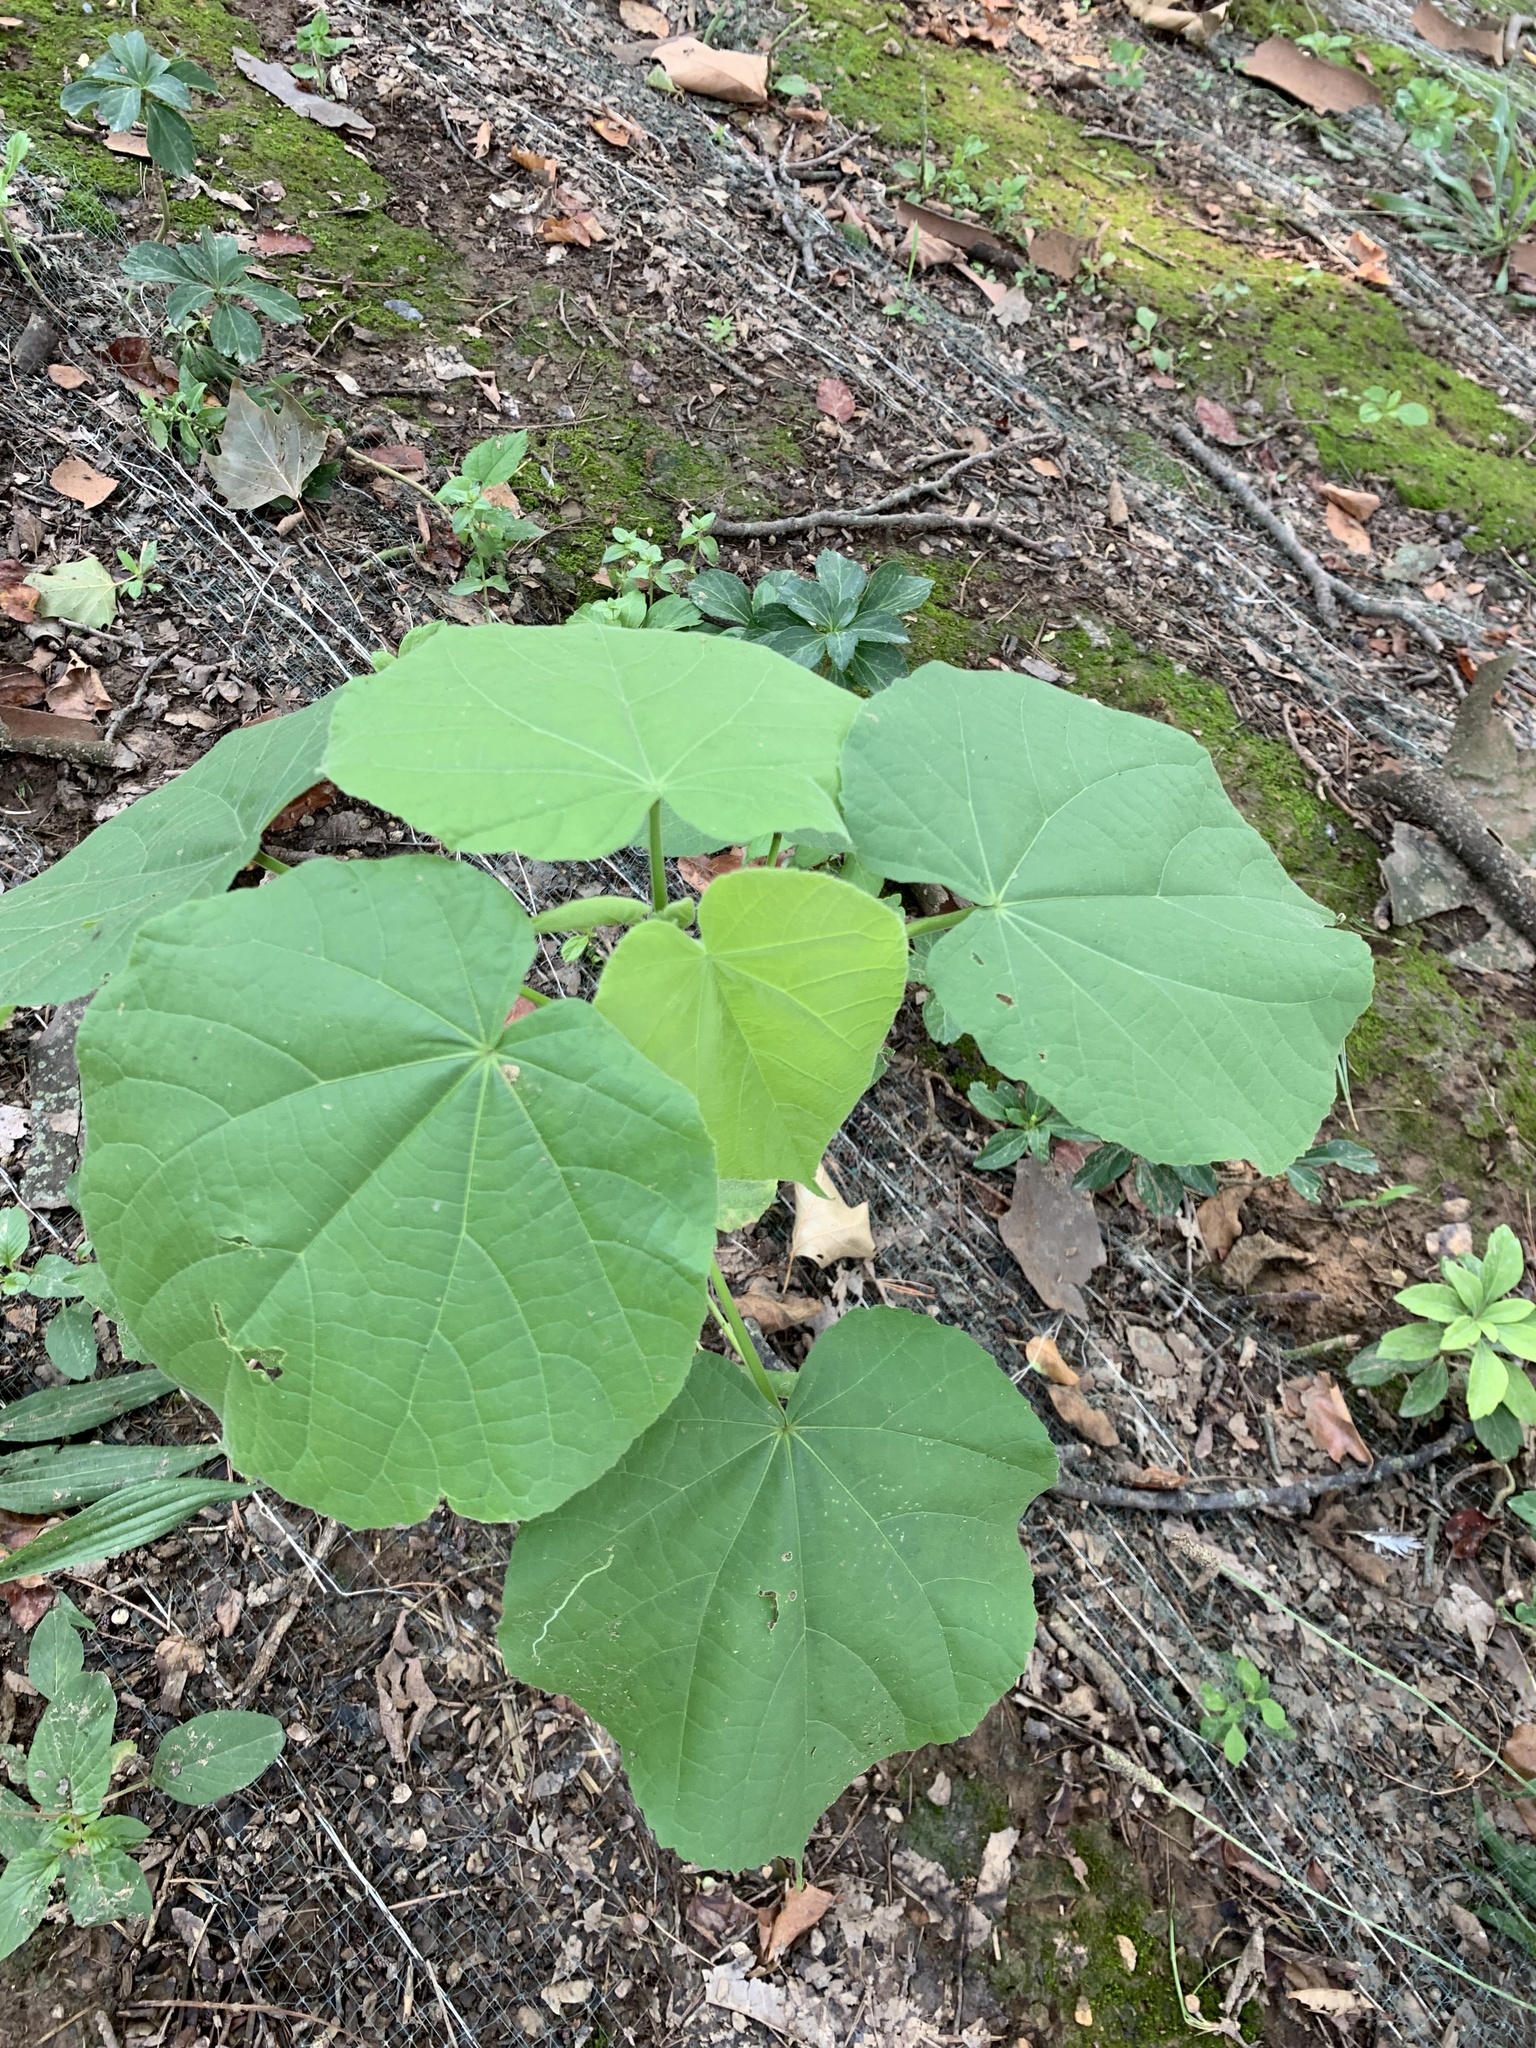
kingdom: Plantae
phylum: Tracheophyta
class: Magnoliopsida
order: Lamiales
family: Paulowniaceae
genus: Paulownia
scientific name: Paulownia tomentosa
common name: Foxglove-tree
